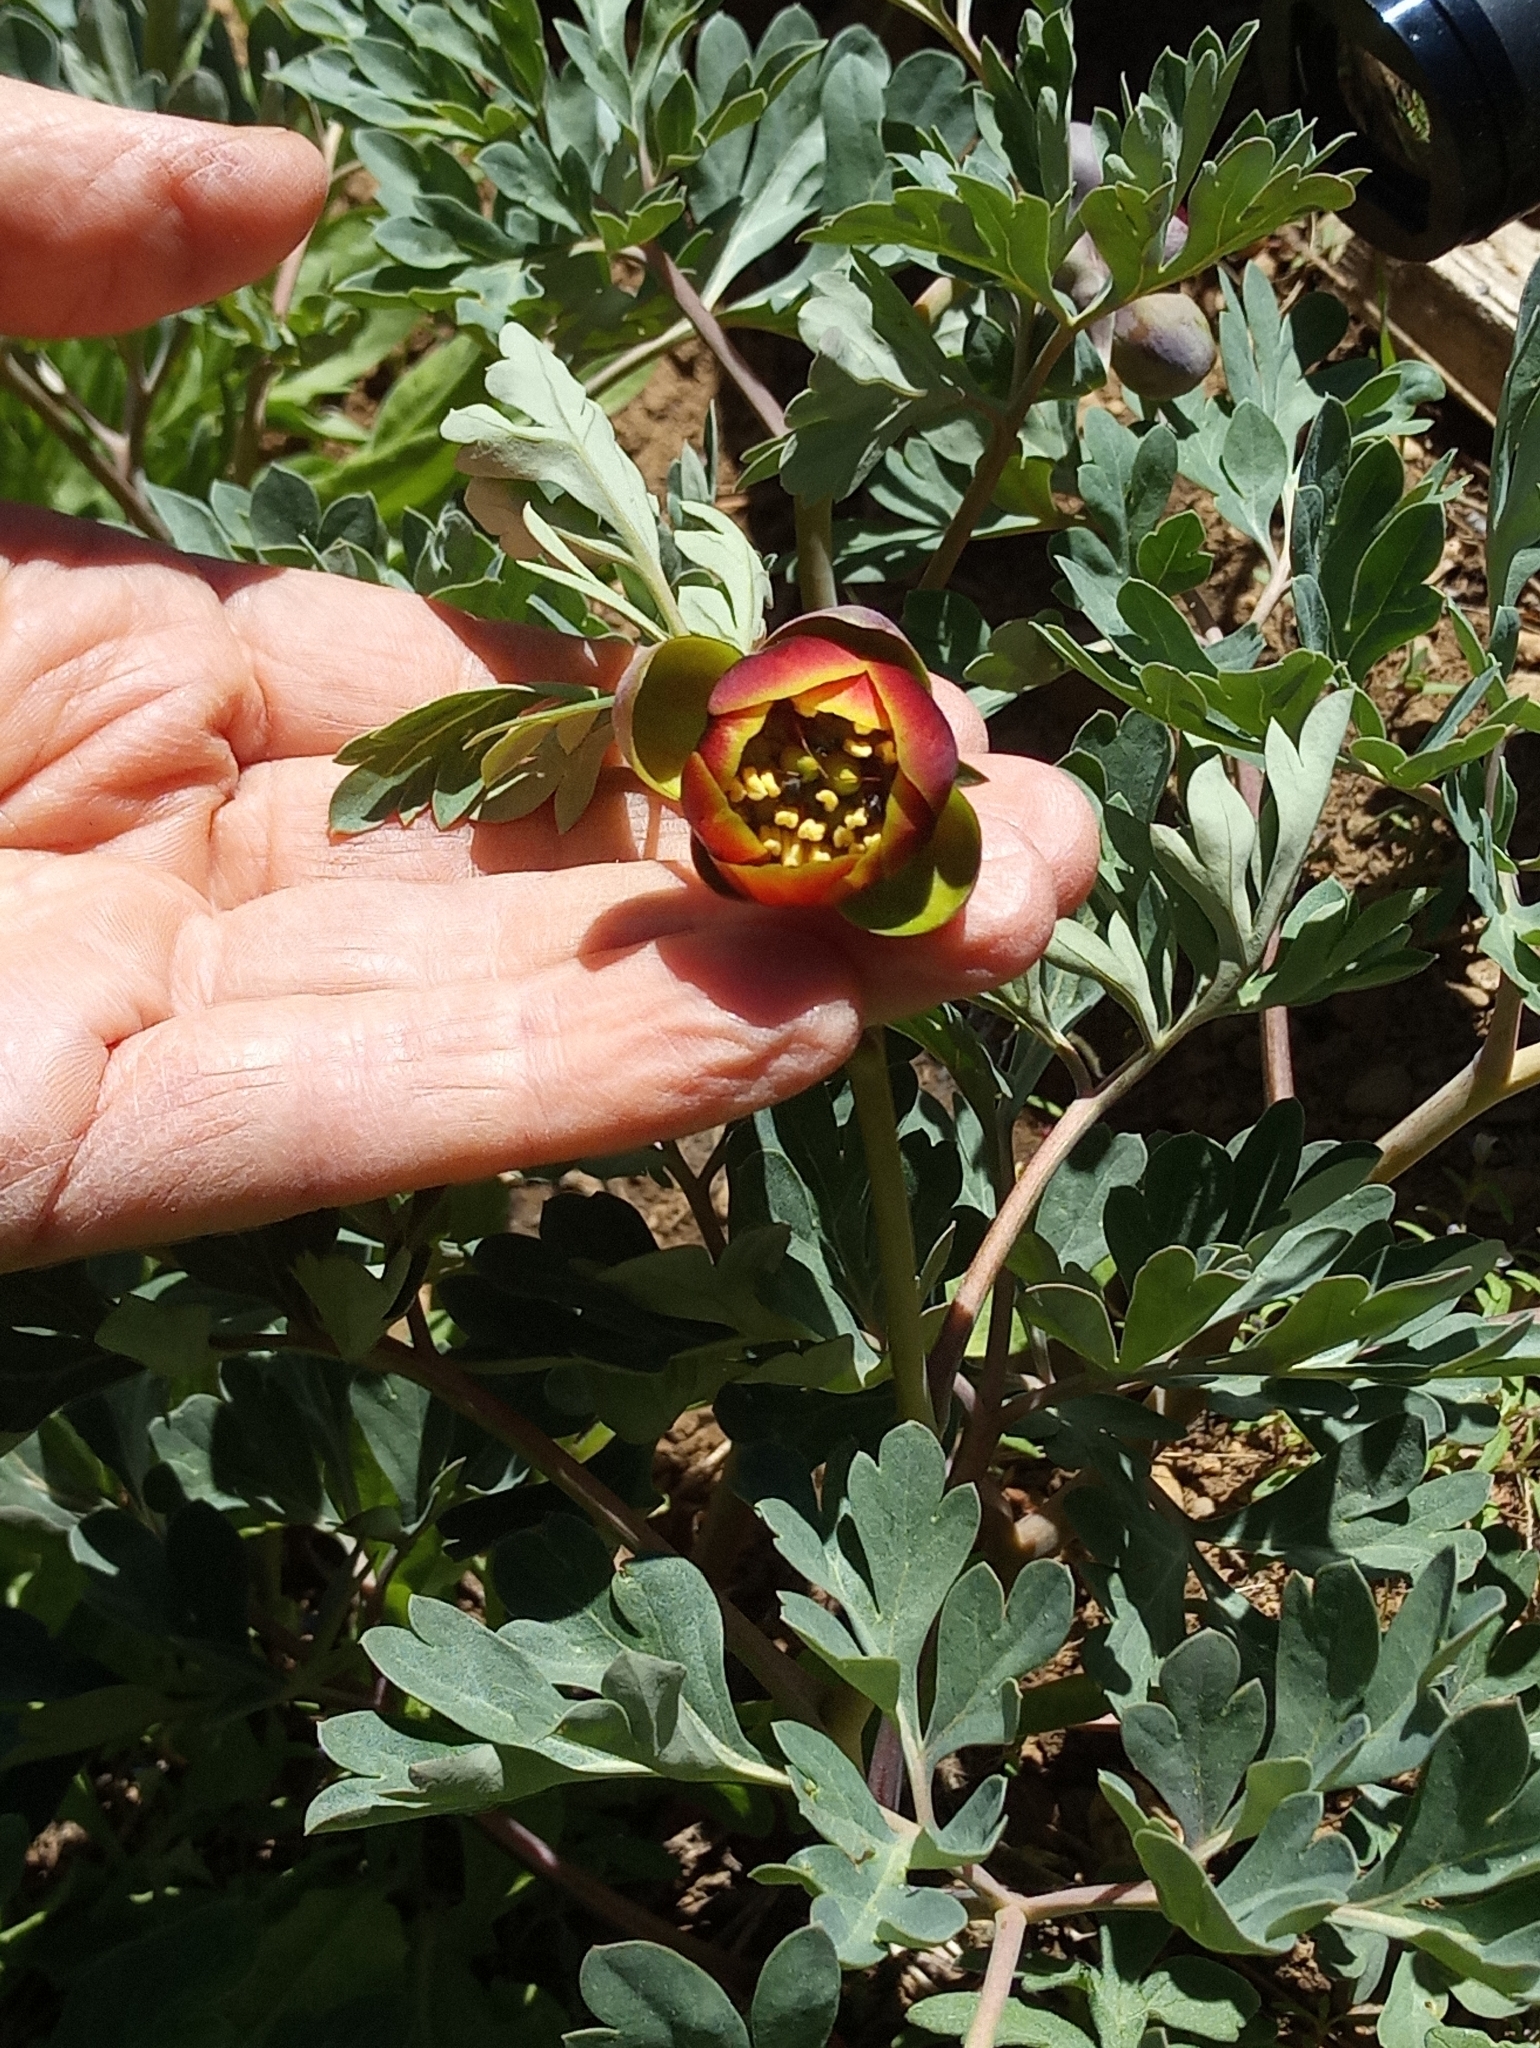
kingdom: Plantae
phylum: Tracheophyta
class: Magnoliopsida
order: Saxifragales
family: Paeoniaceae
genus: Paeonia
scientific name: Paeonia brownii
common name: Brown's peony
